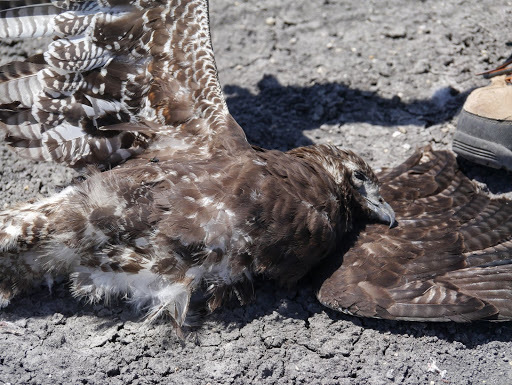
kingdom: Animalia
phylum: Chordata
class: Aves
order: Accipitriformes
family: Accipitridae
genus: Buteo
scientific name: Buteo albicaudatus
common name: White-tailed hawk
